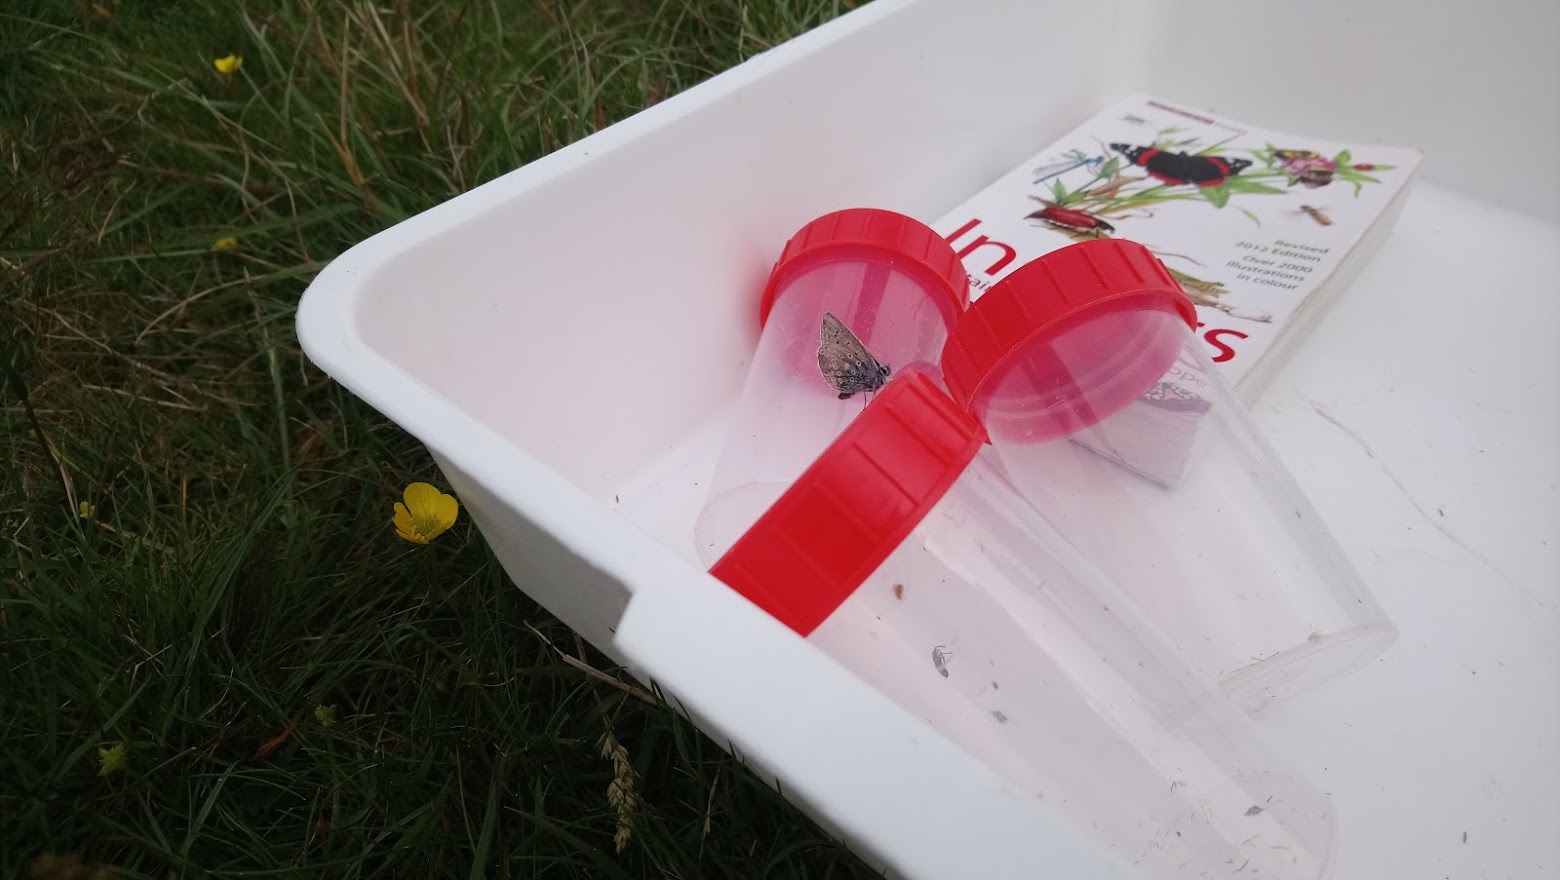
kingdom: Animalia
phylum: Arthropoda
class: Insecta
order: Lepidoptera
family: Lycaenidae
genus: Polyommatus
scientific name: Polyommatus icarus
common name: Common blue
